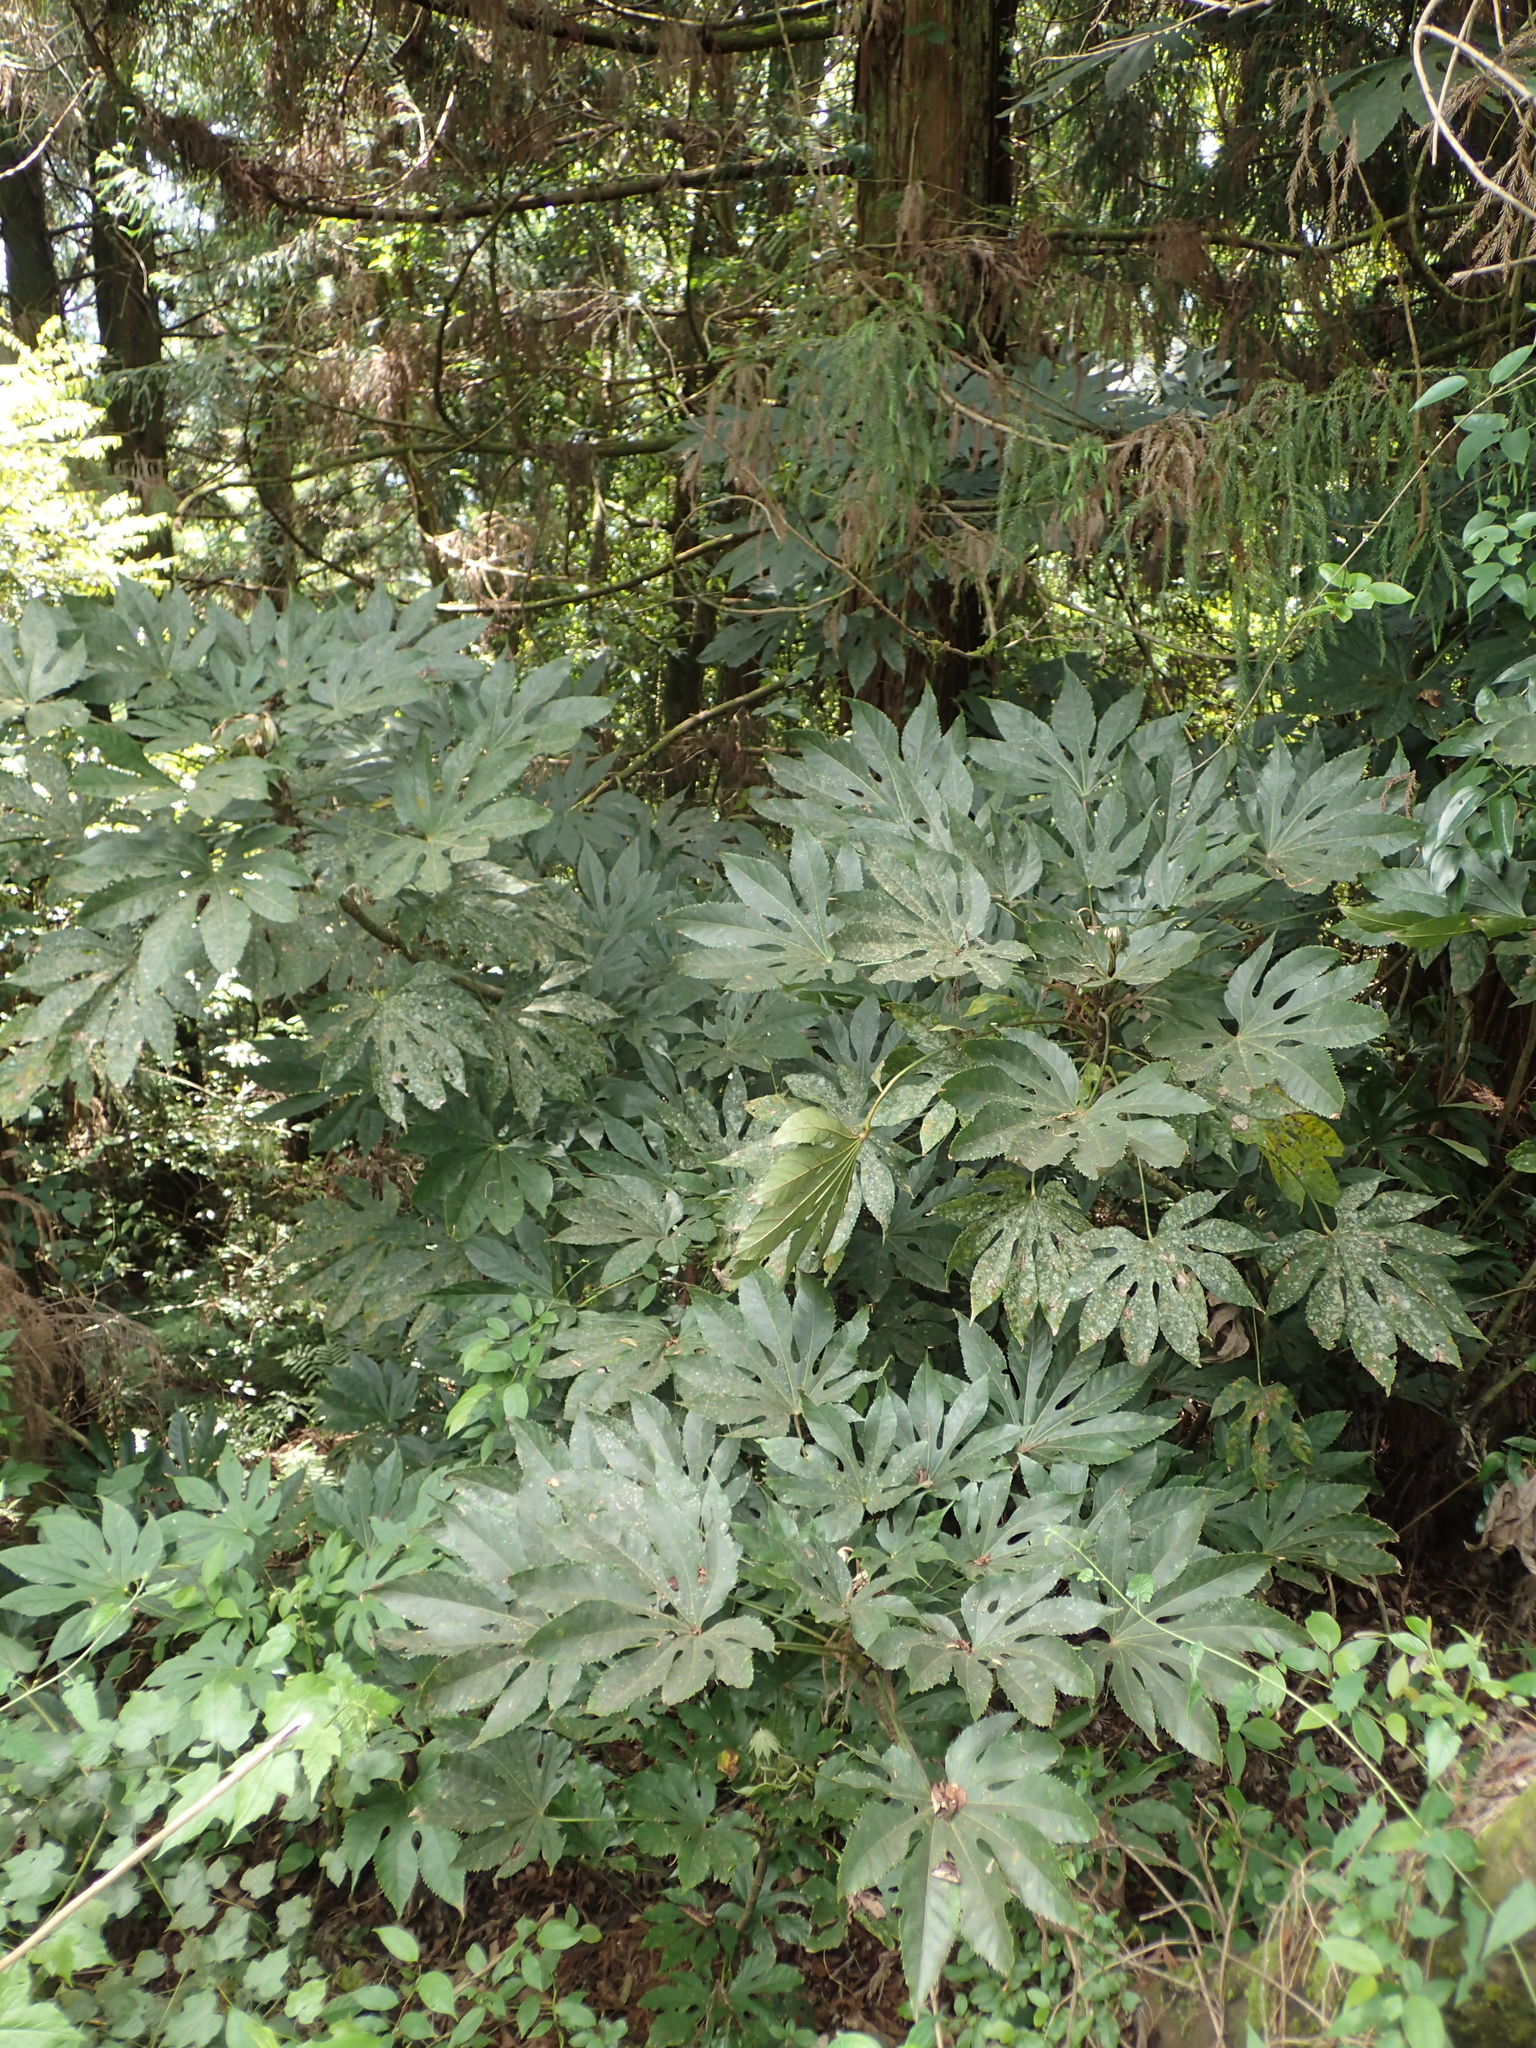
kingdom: Plantae
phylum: Tracheophyta
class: Magnoliopsida
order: Apiales
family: Araliaceae
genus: Fatsia
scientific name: Fatsia polycarpa
